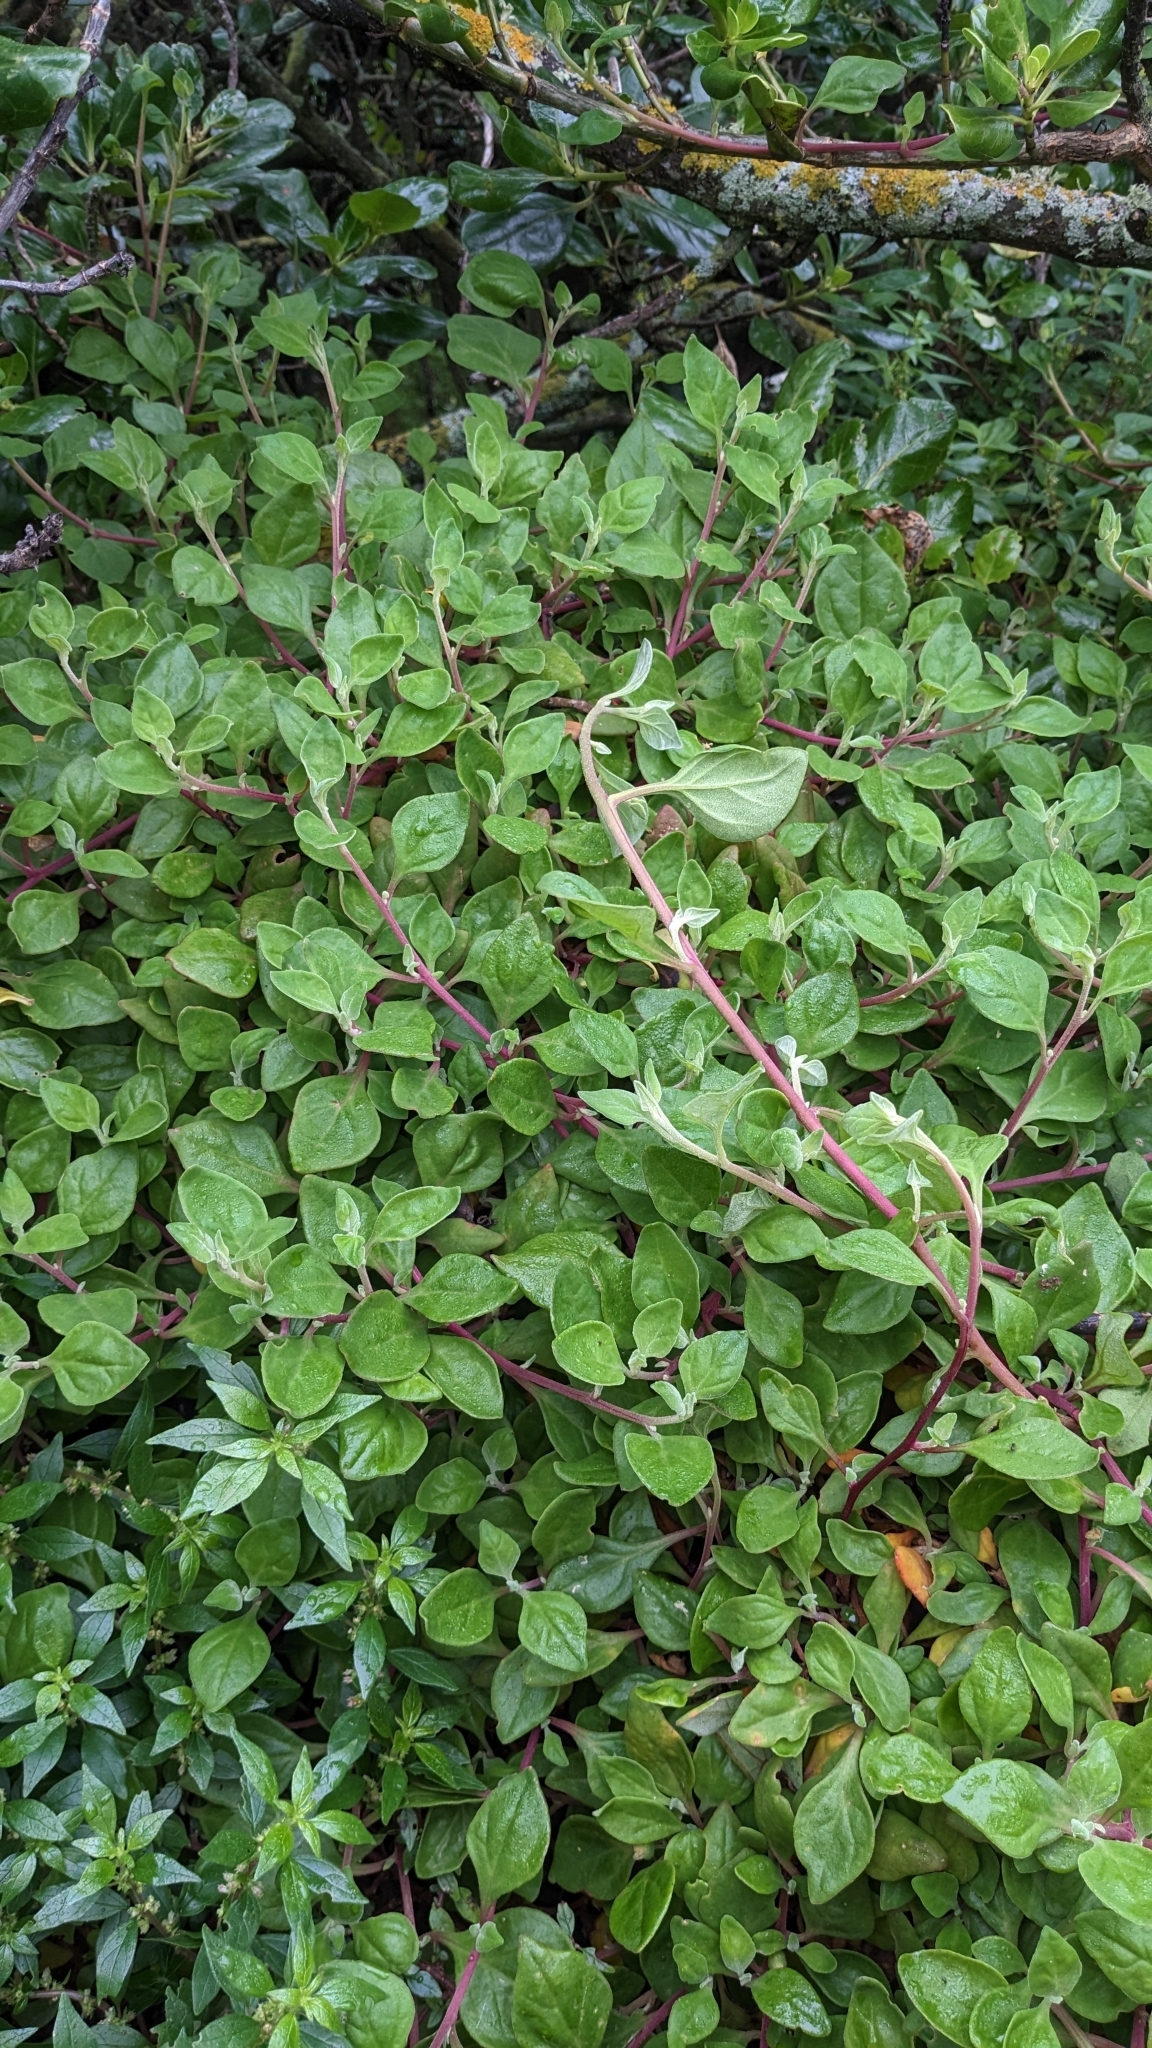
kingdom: Plantae
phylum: Tracheophyta
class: Magnoliopsida
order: Caryophyllales
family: Aizoaceae
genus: Tetragonia
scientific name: Tetragonia implexicoma
